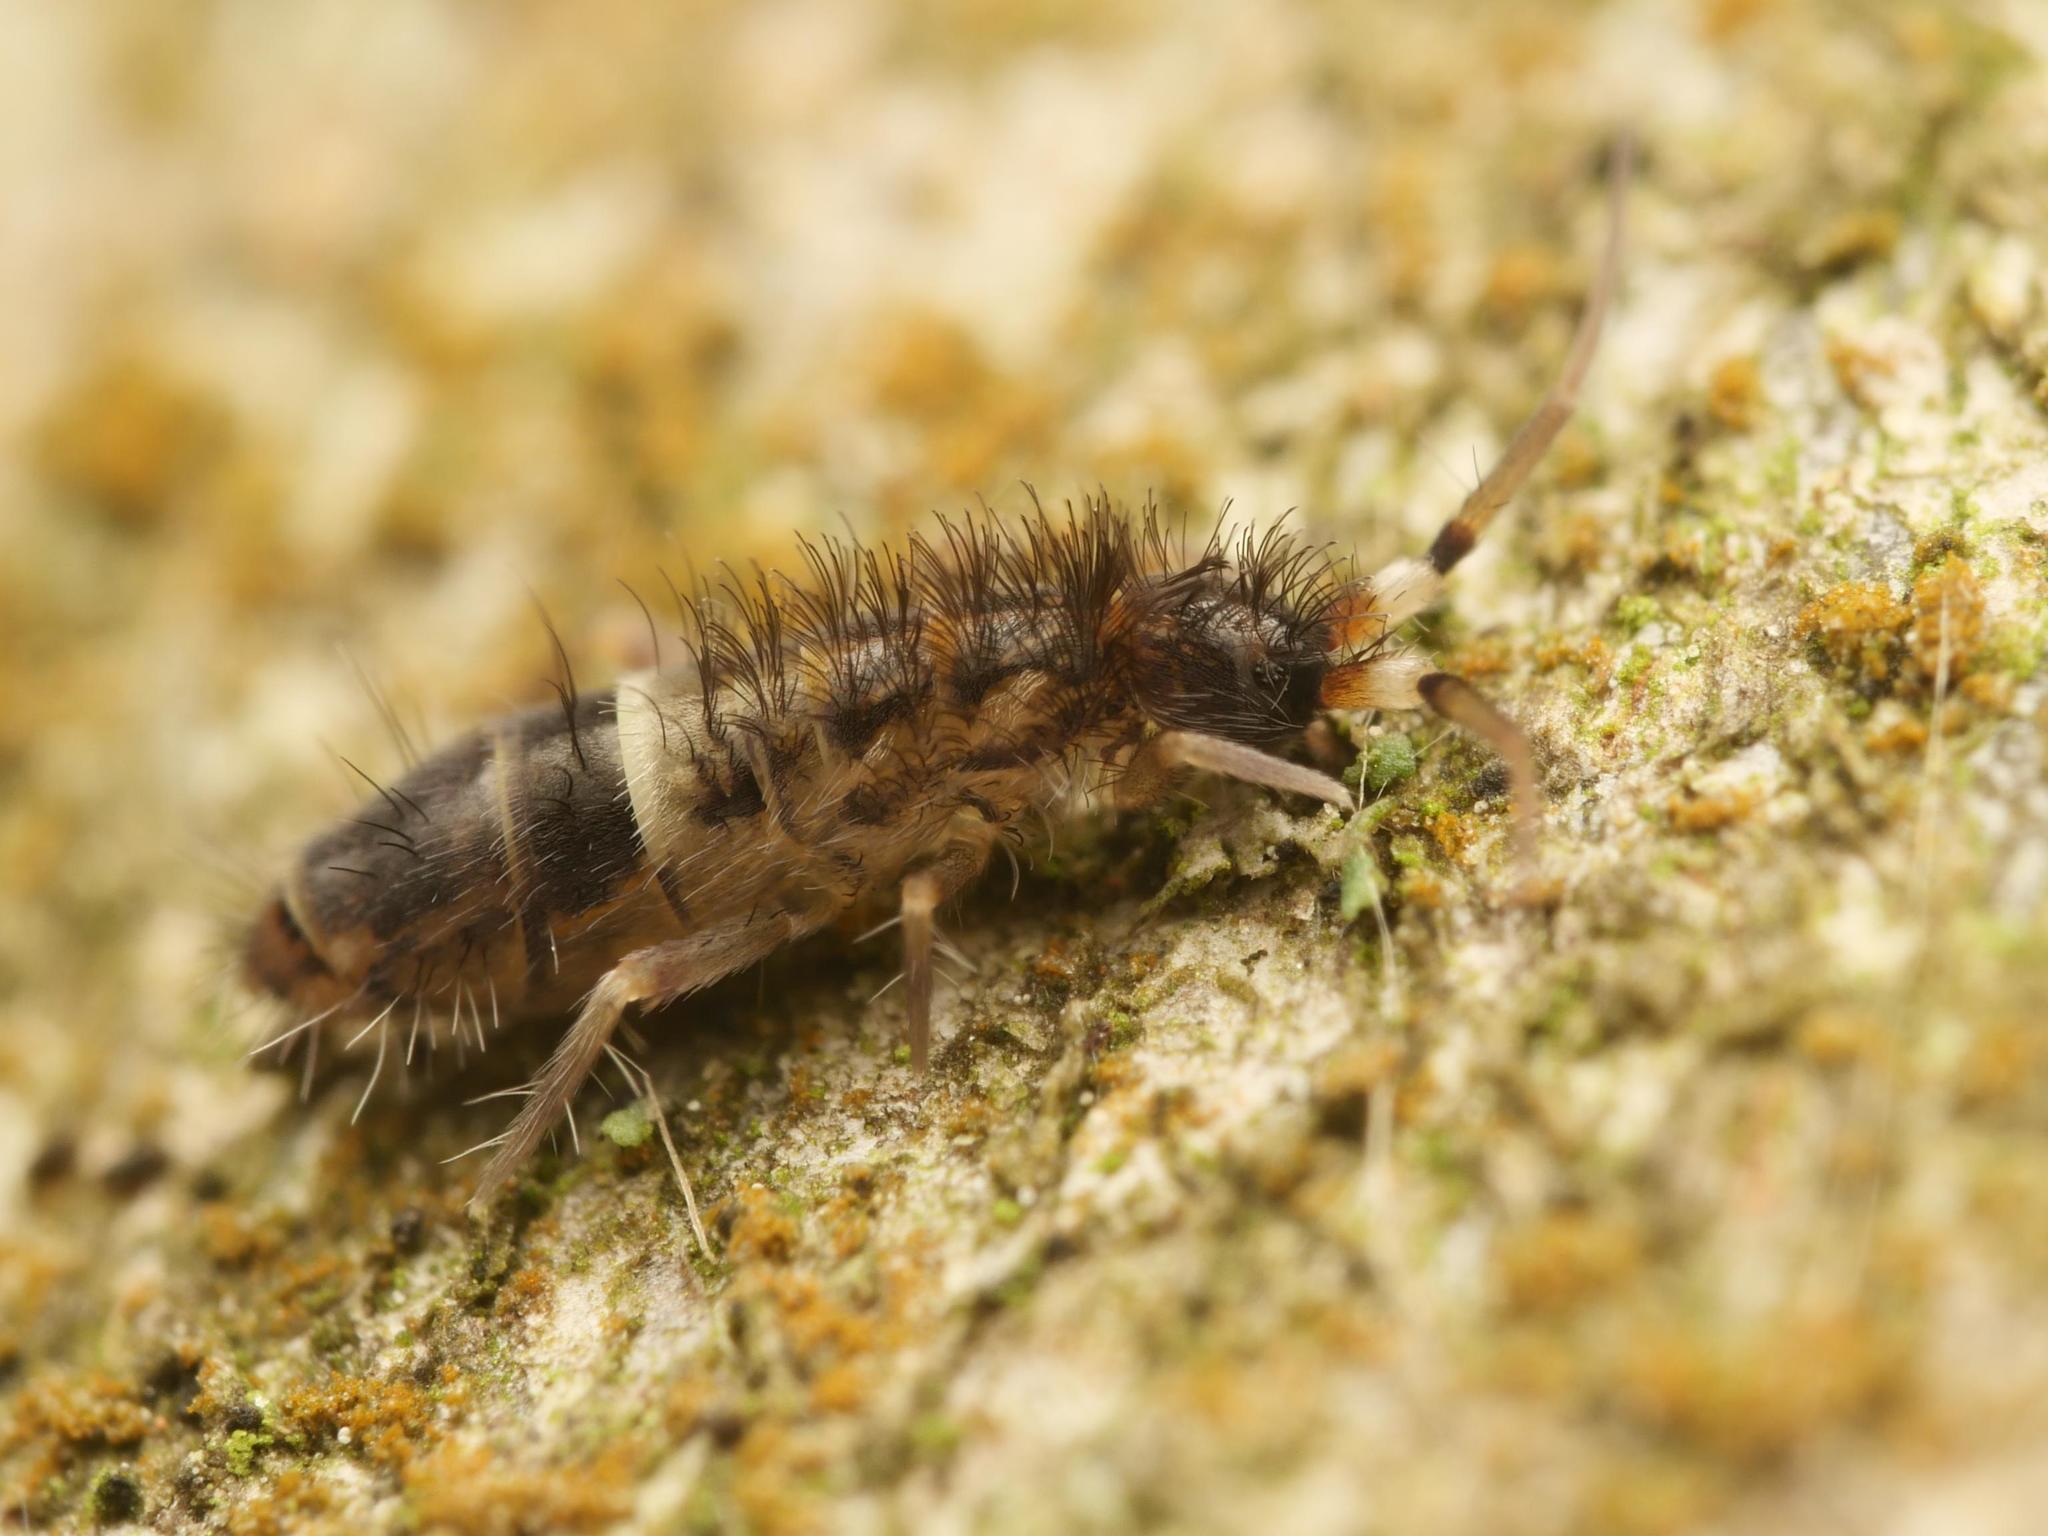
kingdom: Animalia
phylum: Arthropoda
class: Collembola
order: Entomobryomorpha
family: Orchesellidae
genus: Orchesella
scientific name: Orchesella cincta
